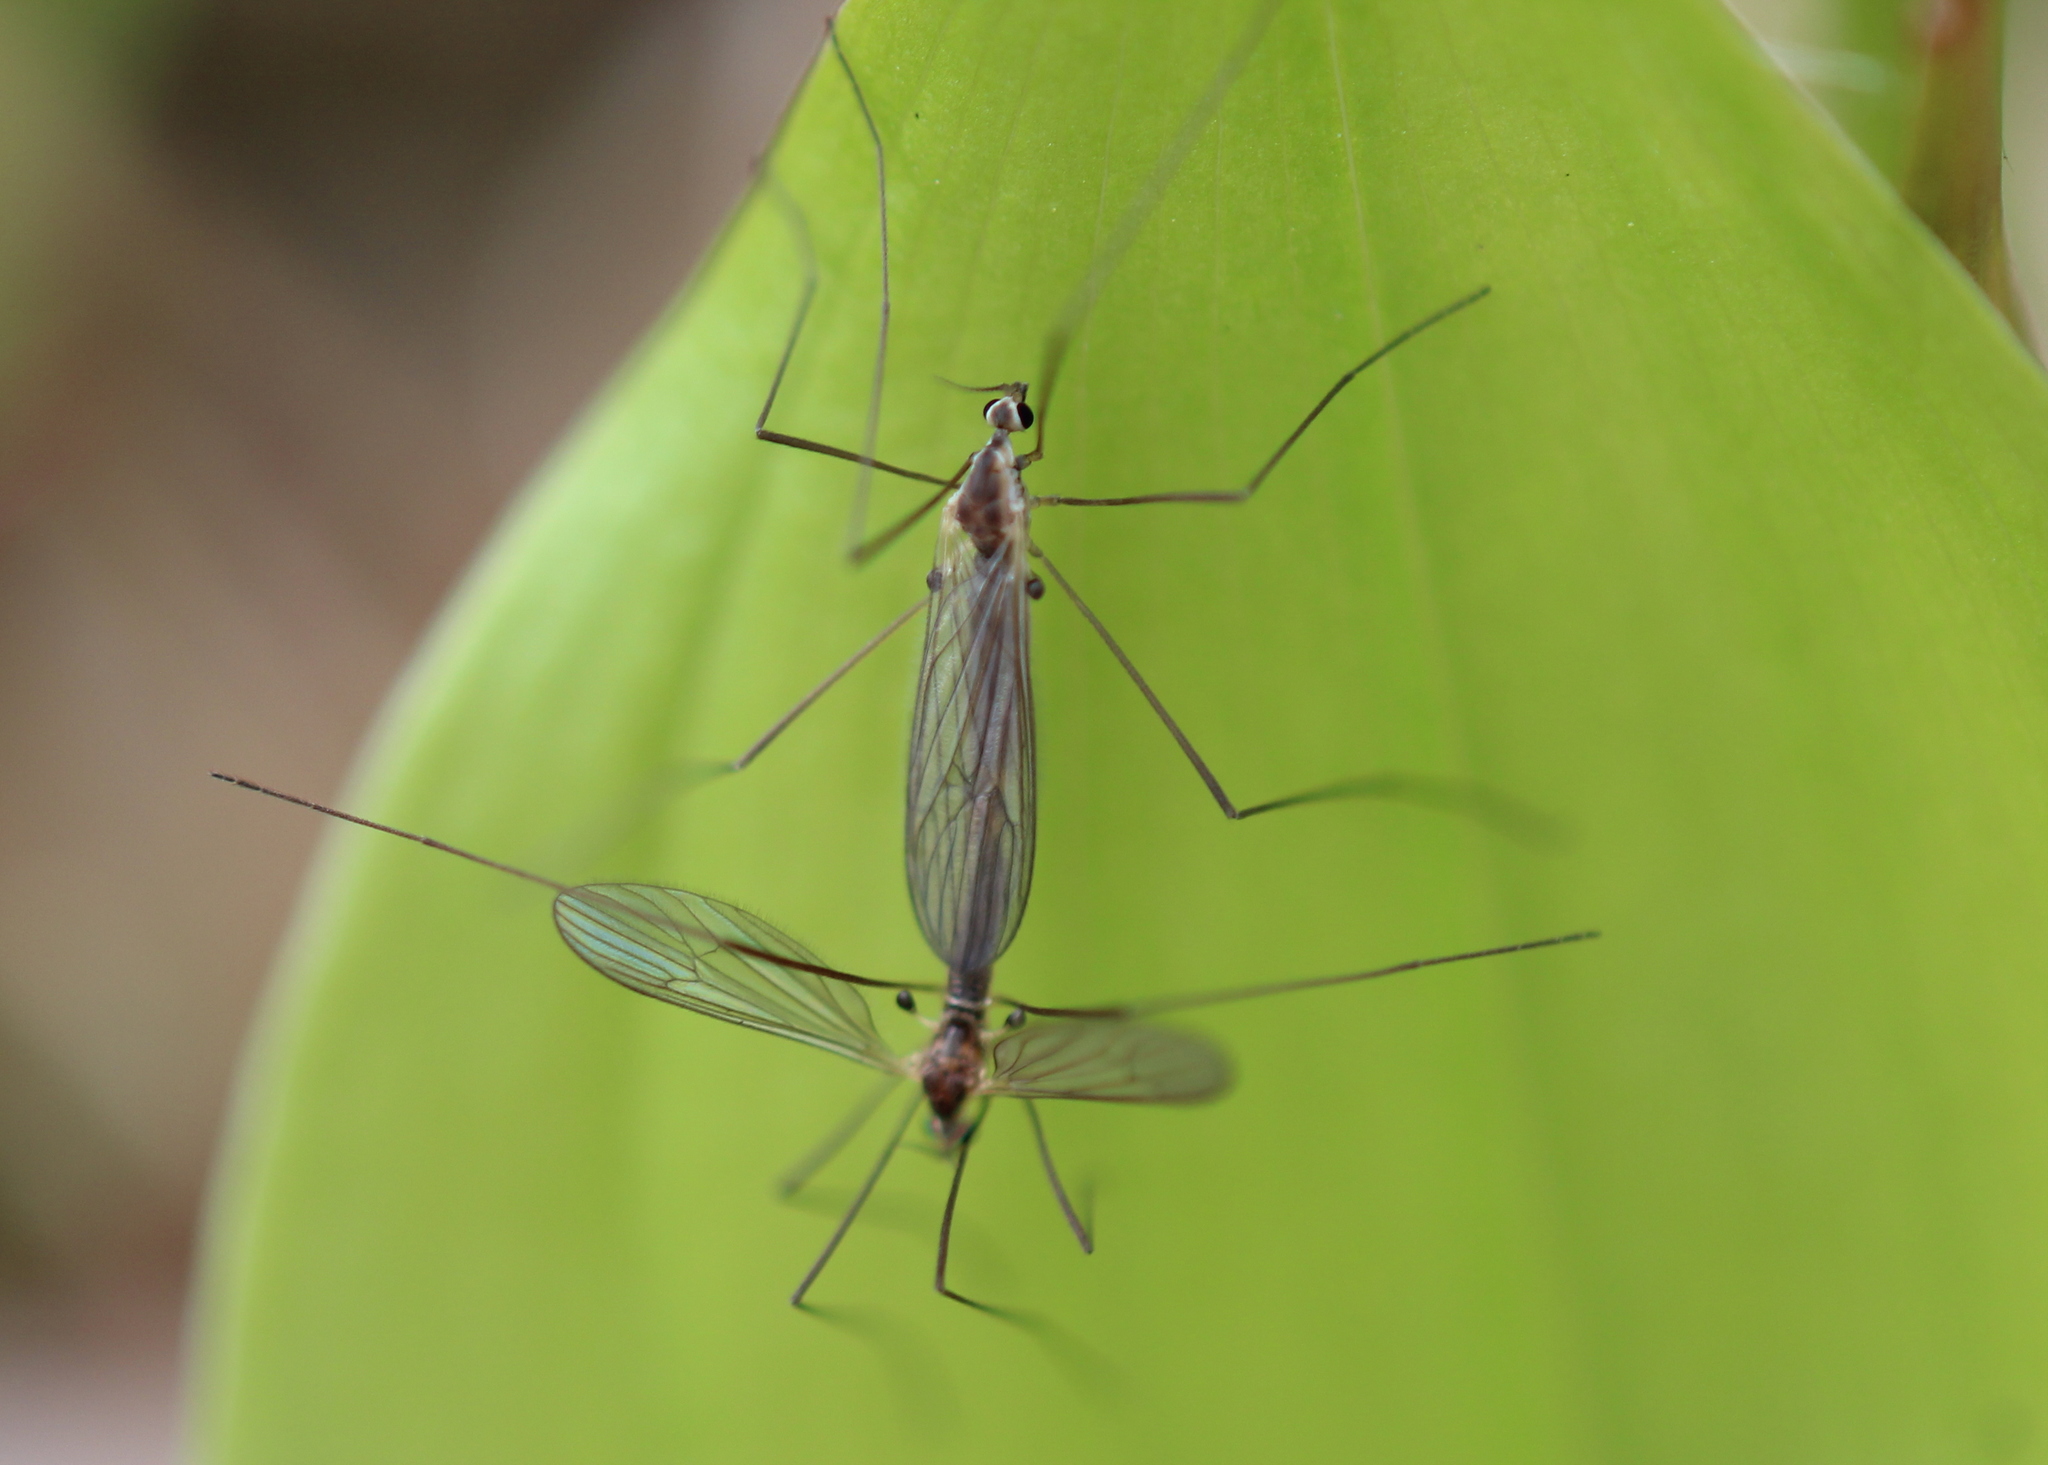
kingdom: Animalia
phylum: Arthropoda
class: Insecta
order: Diptera
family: Limoniidae
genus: Erioptera
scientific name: Erioptera septemtrionis
